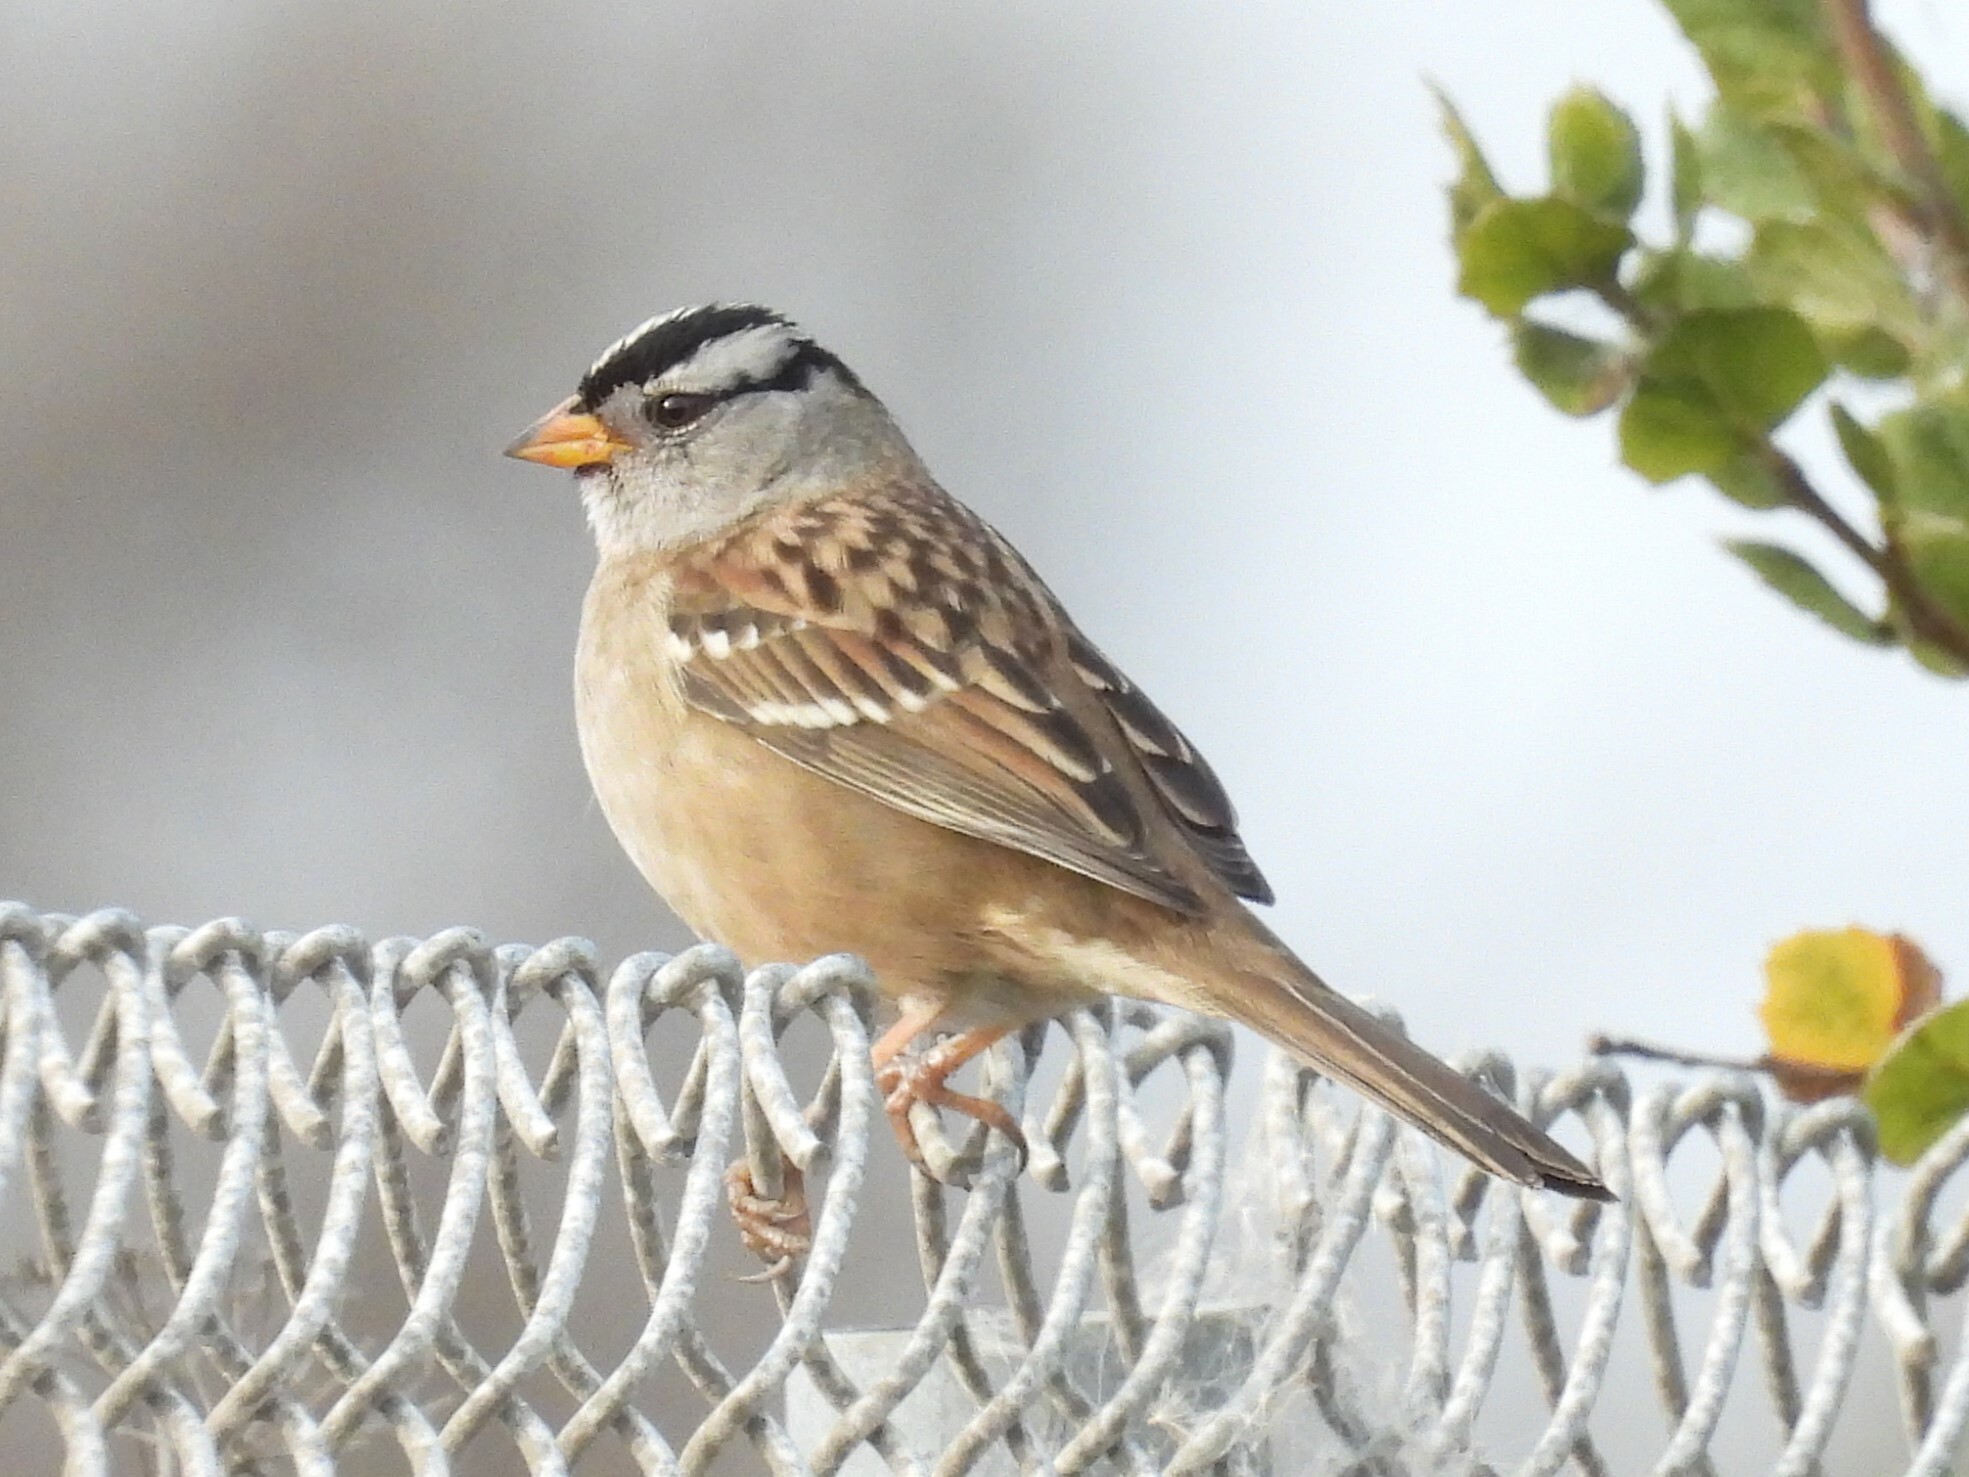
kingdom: Animalia
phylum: Chordata
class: Aves
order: Passeriformes
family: Passerellidae
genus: Zonotrichia
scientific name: Zonotrichia leucophrys
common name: White-crowned sparrow
